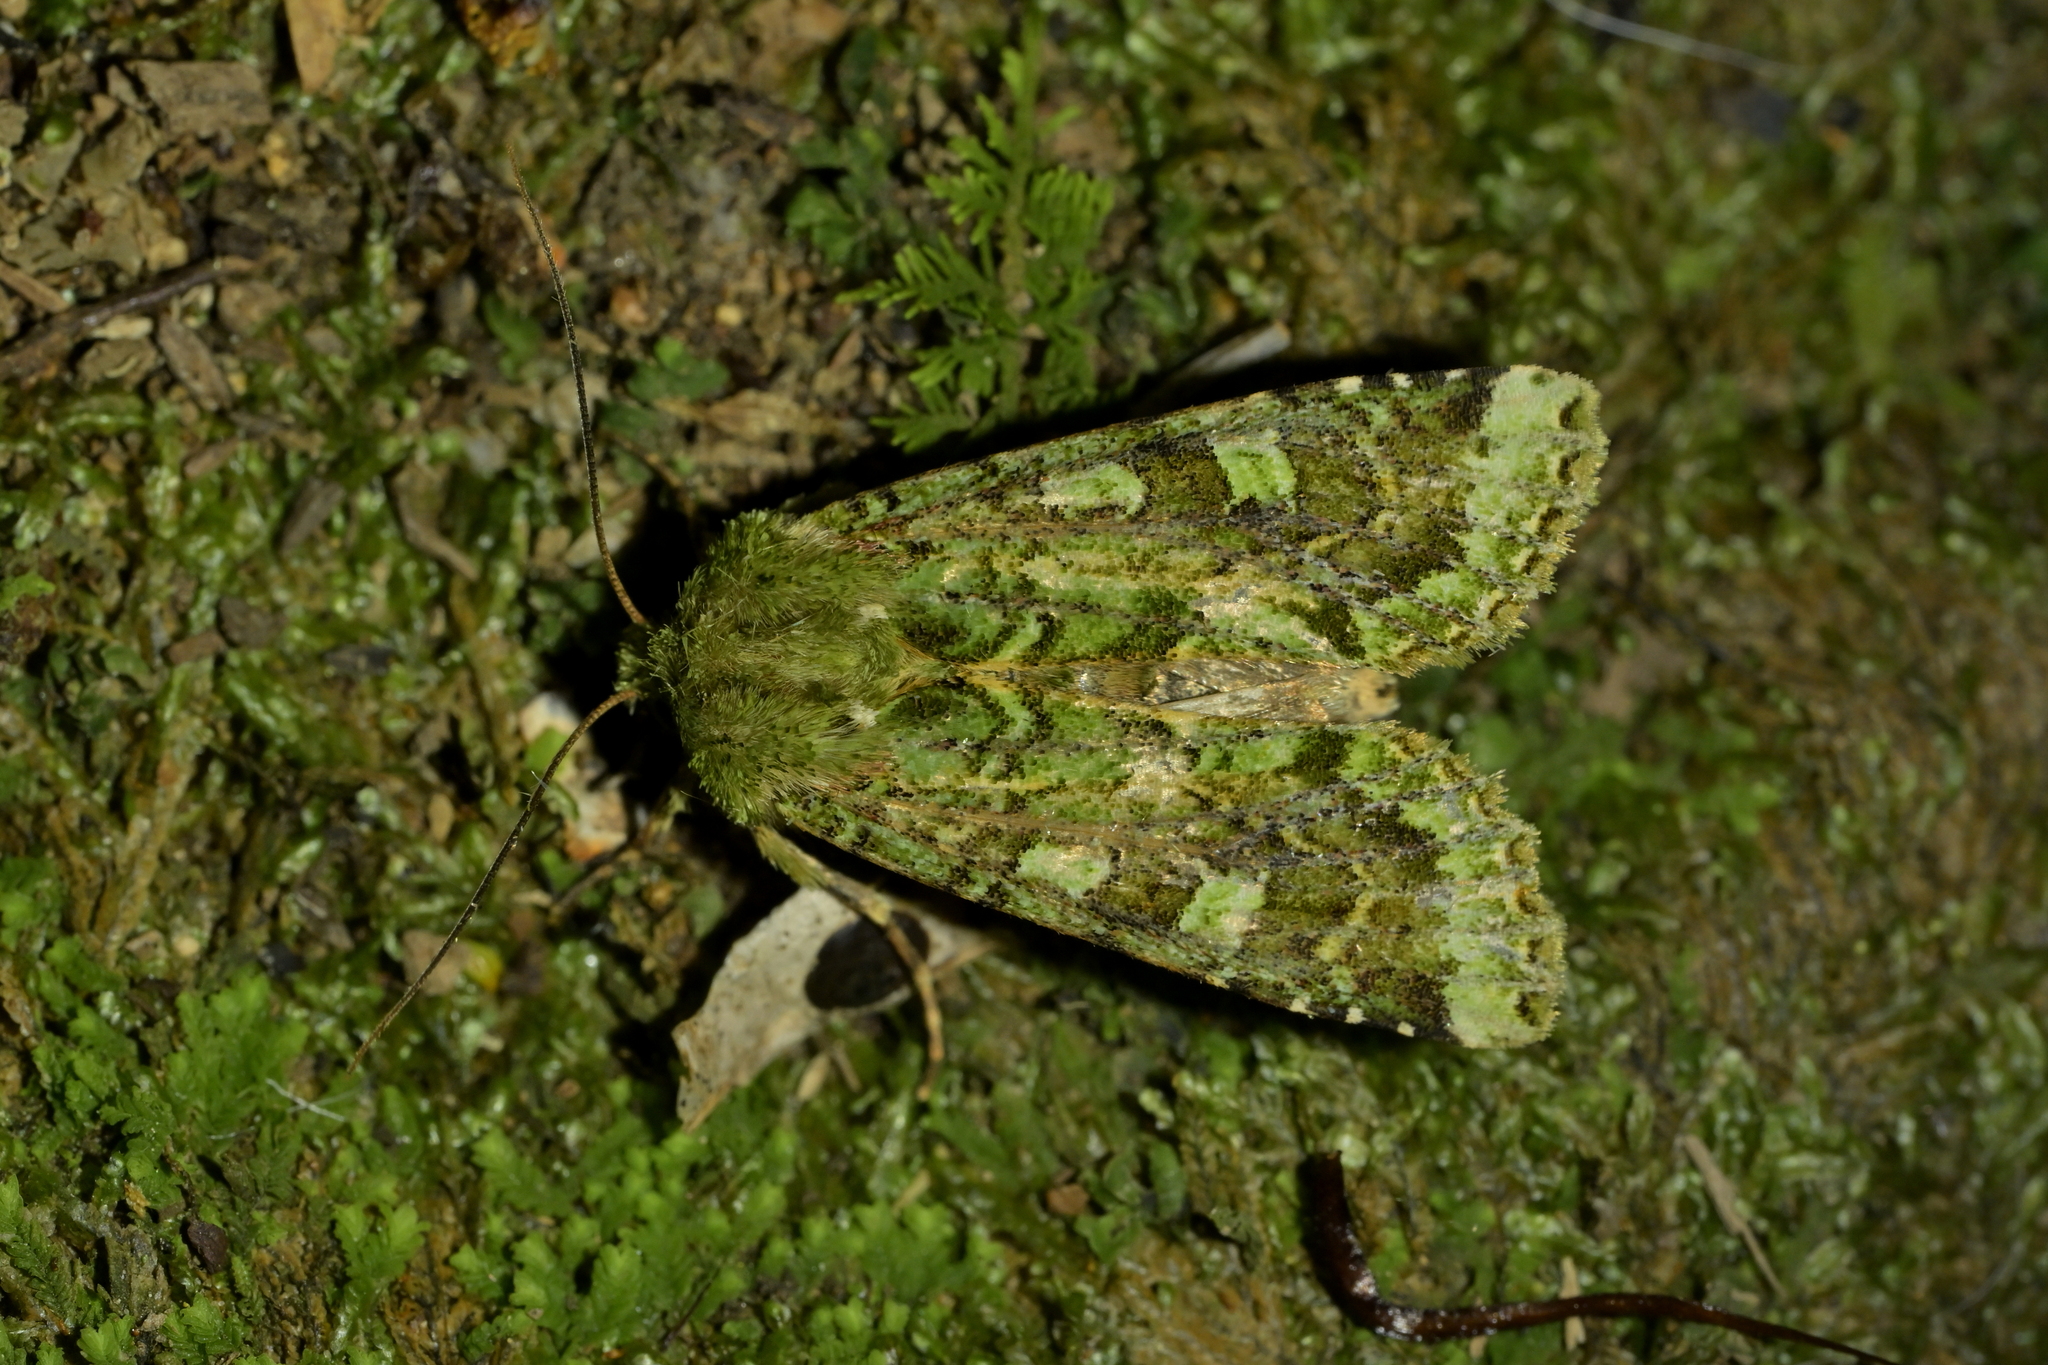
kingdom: Animalia
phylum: Arthropoda
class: Insecta
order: Lepidoptera
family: Noctuidae
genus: Feredayia
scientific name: Feredayia grammosa
